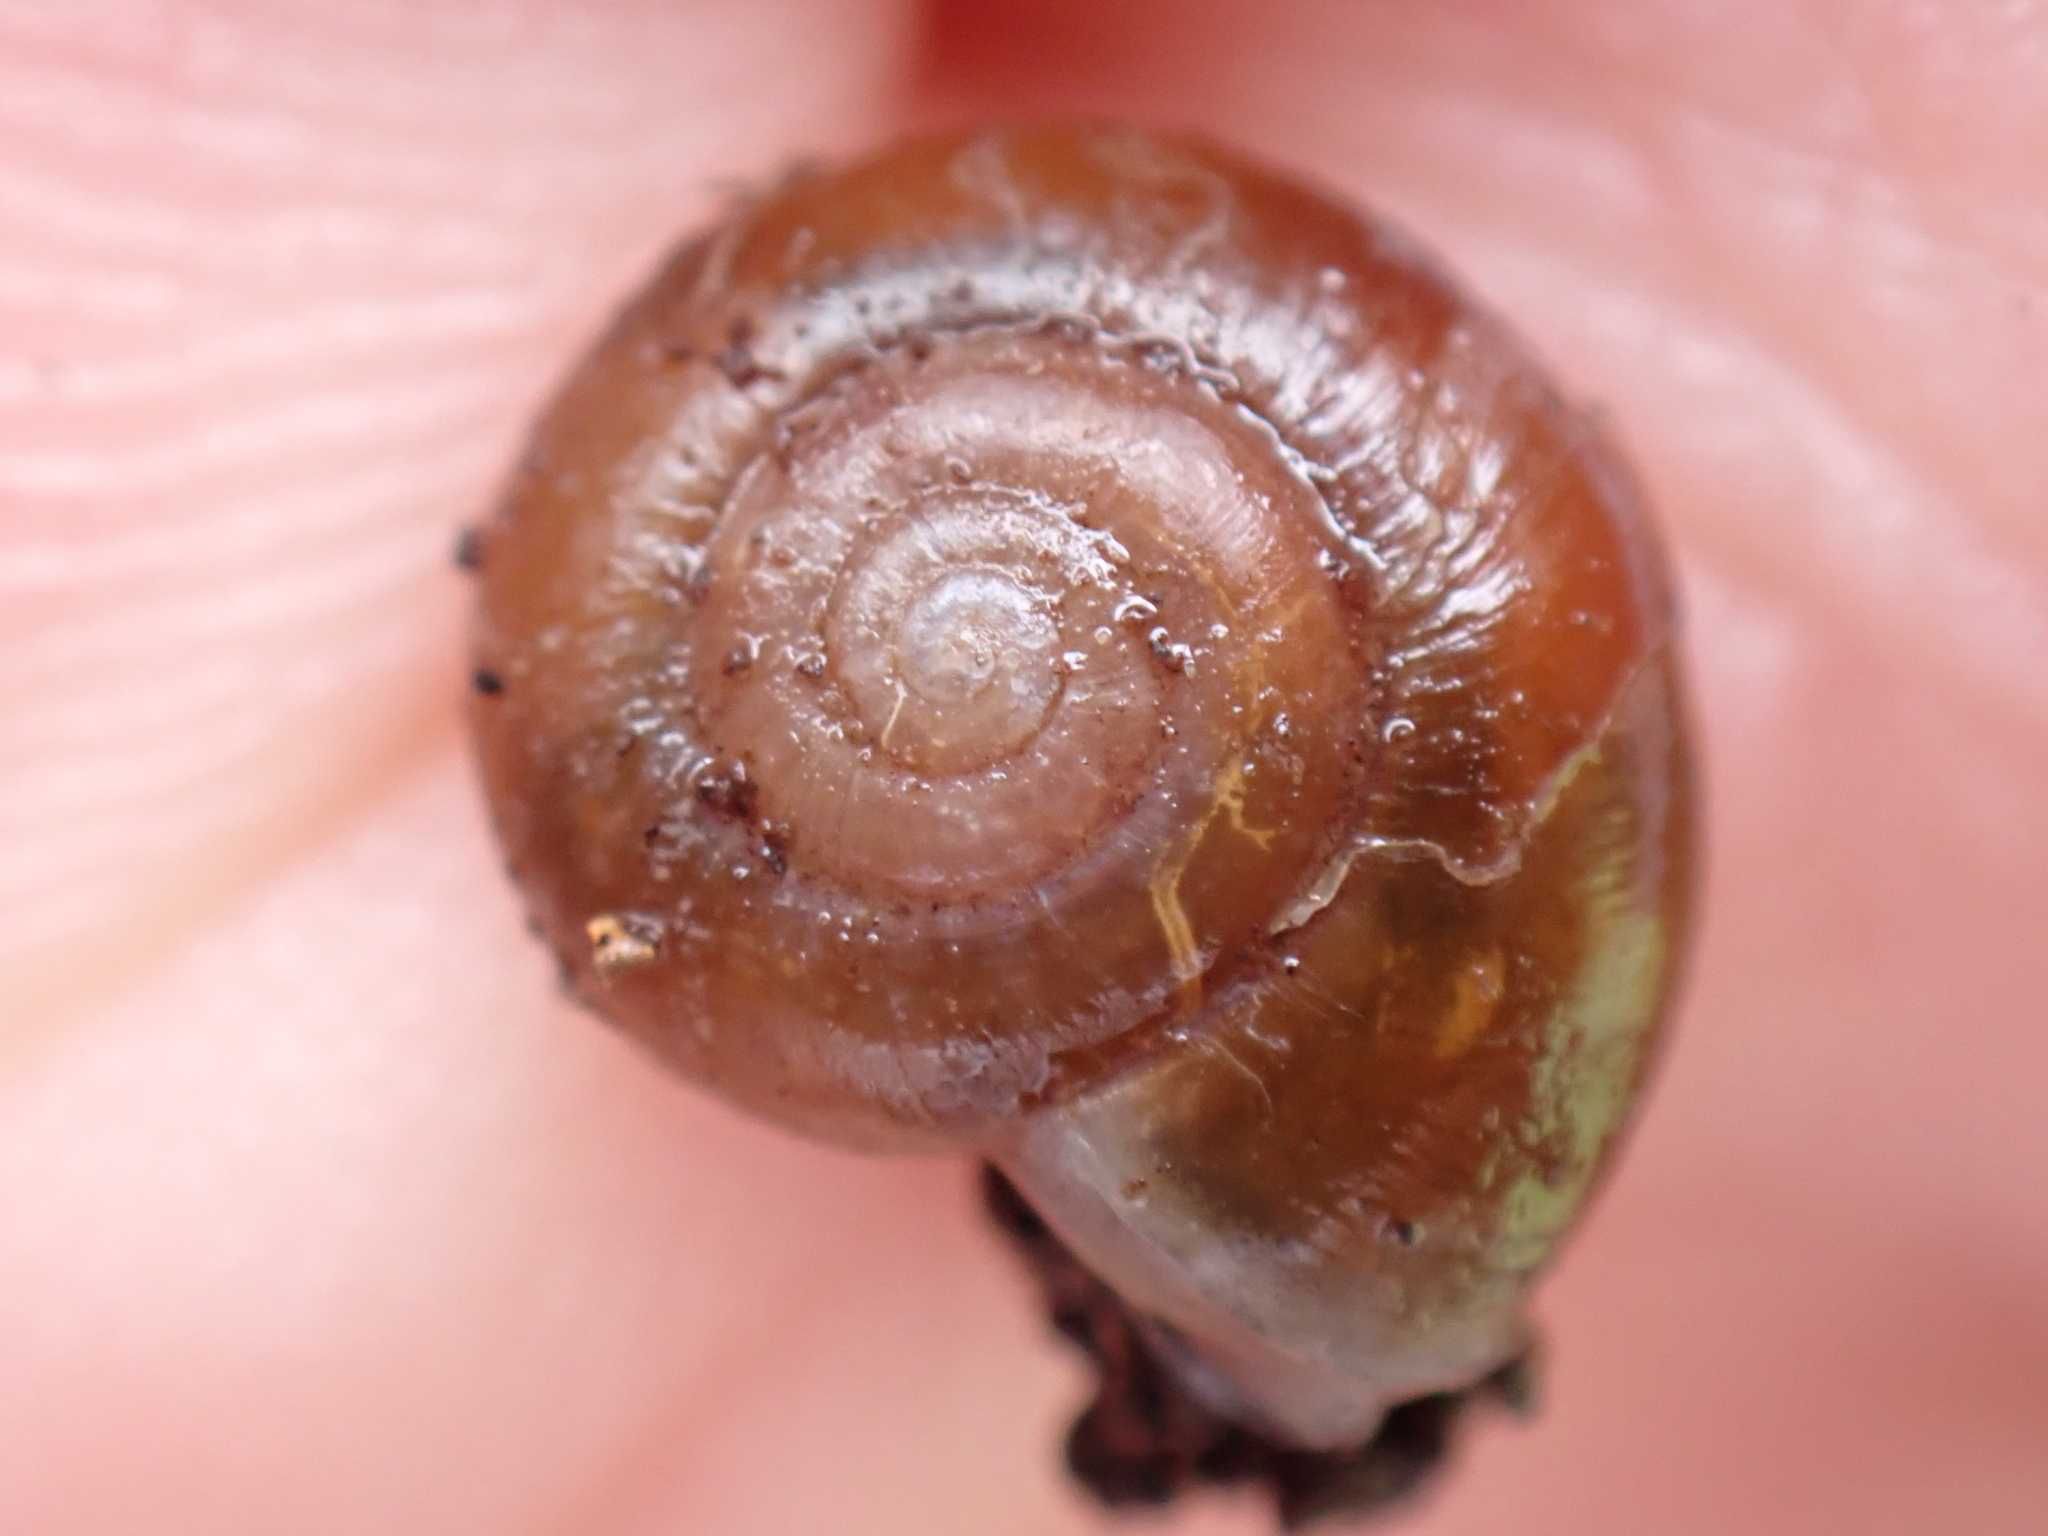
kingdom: Animalia
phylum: Mollusca
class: Gastropoda
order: Stylommatophora
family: Gastrodontidae
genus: Aegopinella
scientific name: Aegopinella nitidula
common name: Smooth glass snail
